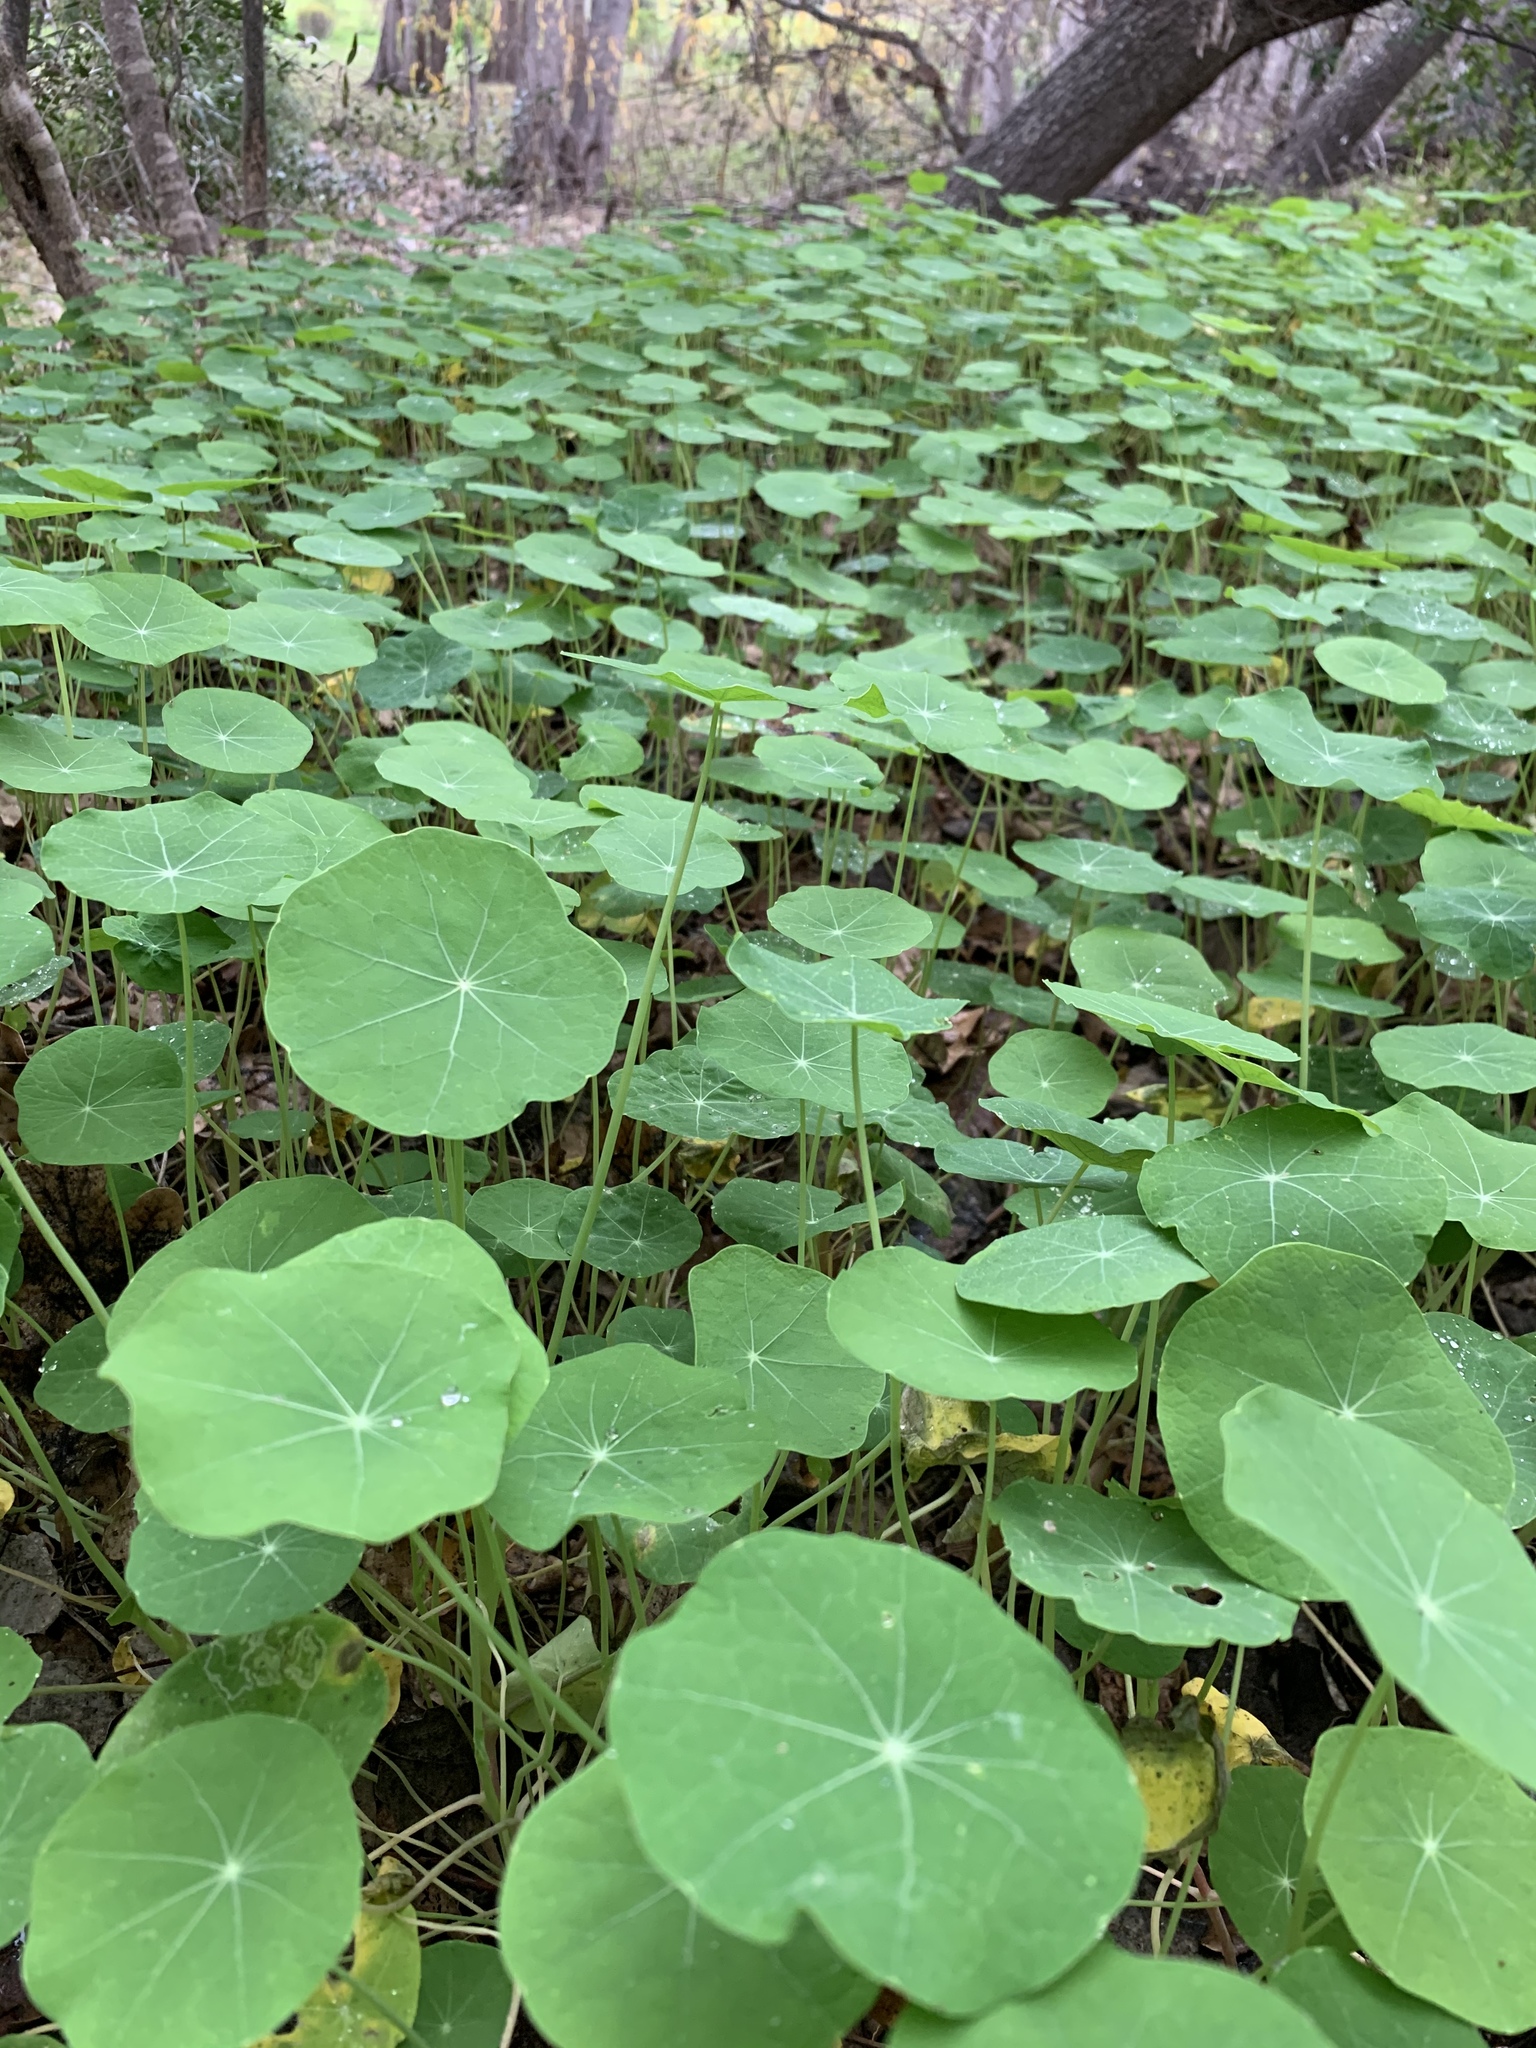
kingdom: Plantae
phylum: Tracheophyta
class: Magnoliopsida
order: Brassicales
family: Tropaeolaceae
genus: Tropaeolum
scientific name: Tropaeolum majus
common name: Nasturtium
